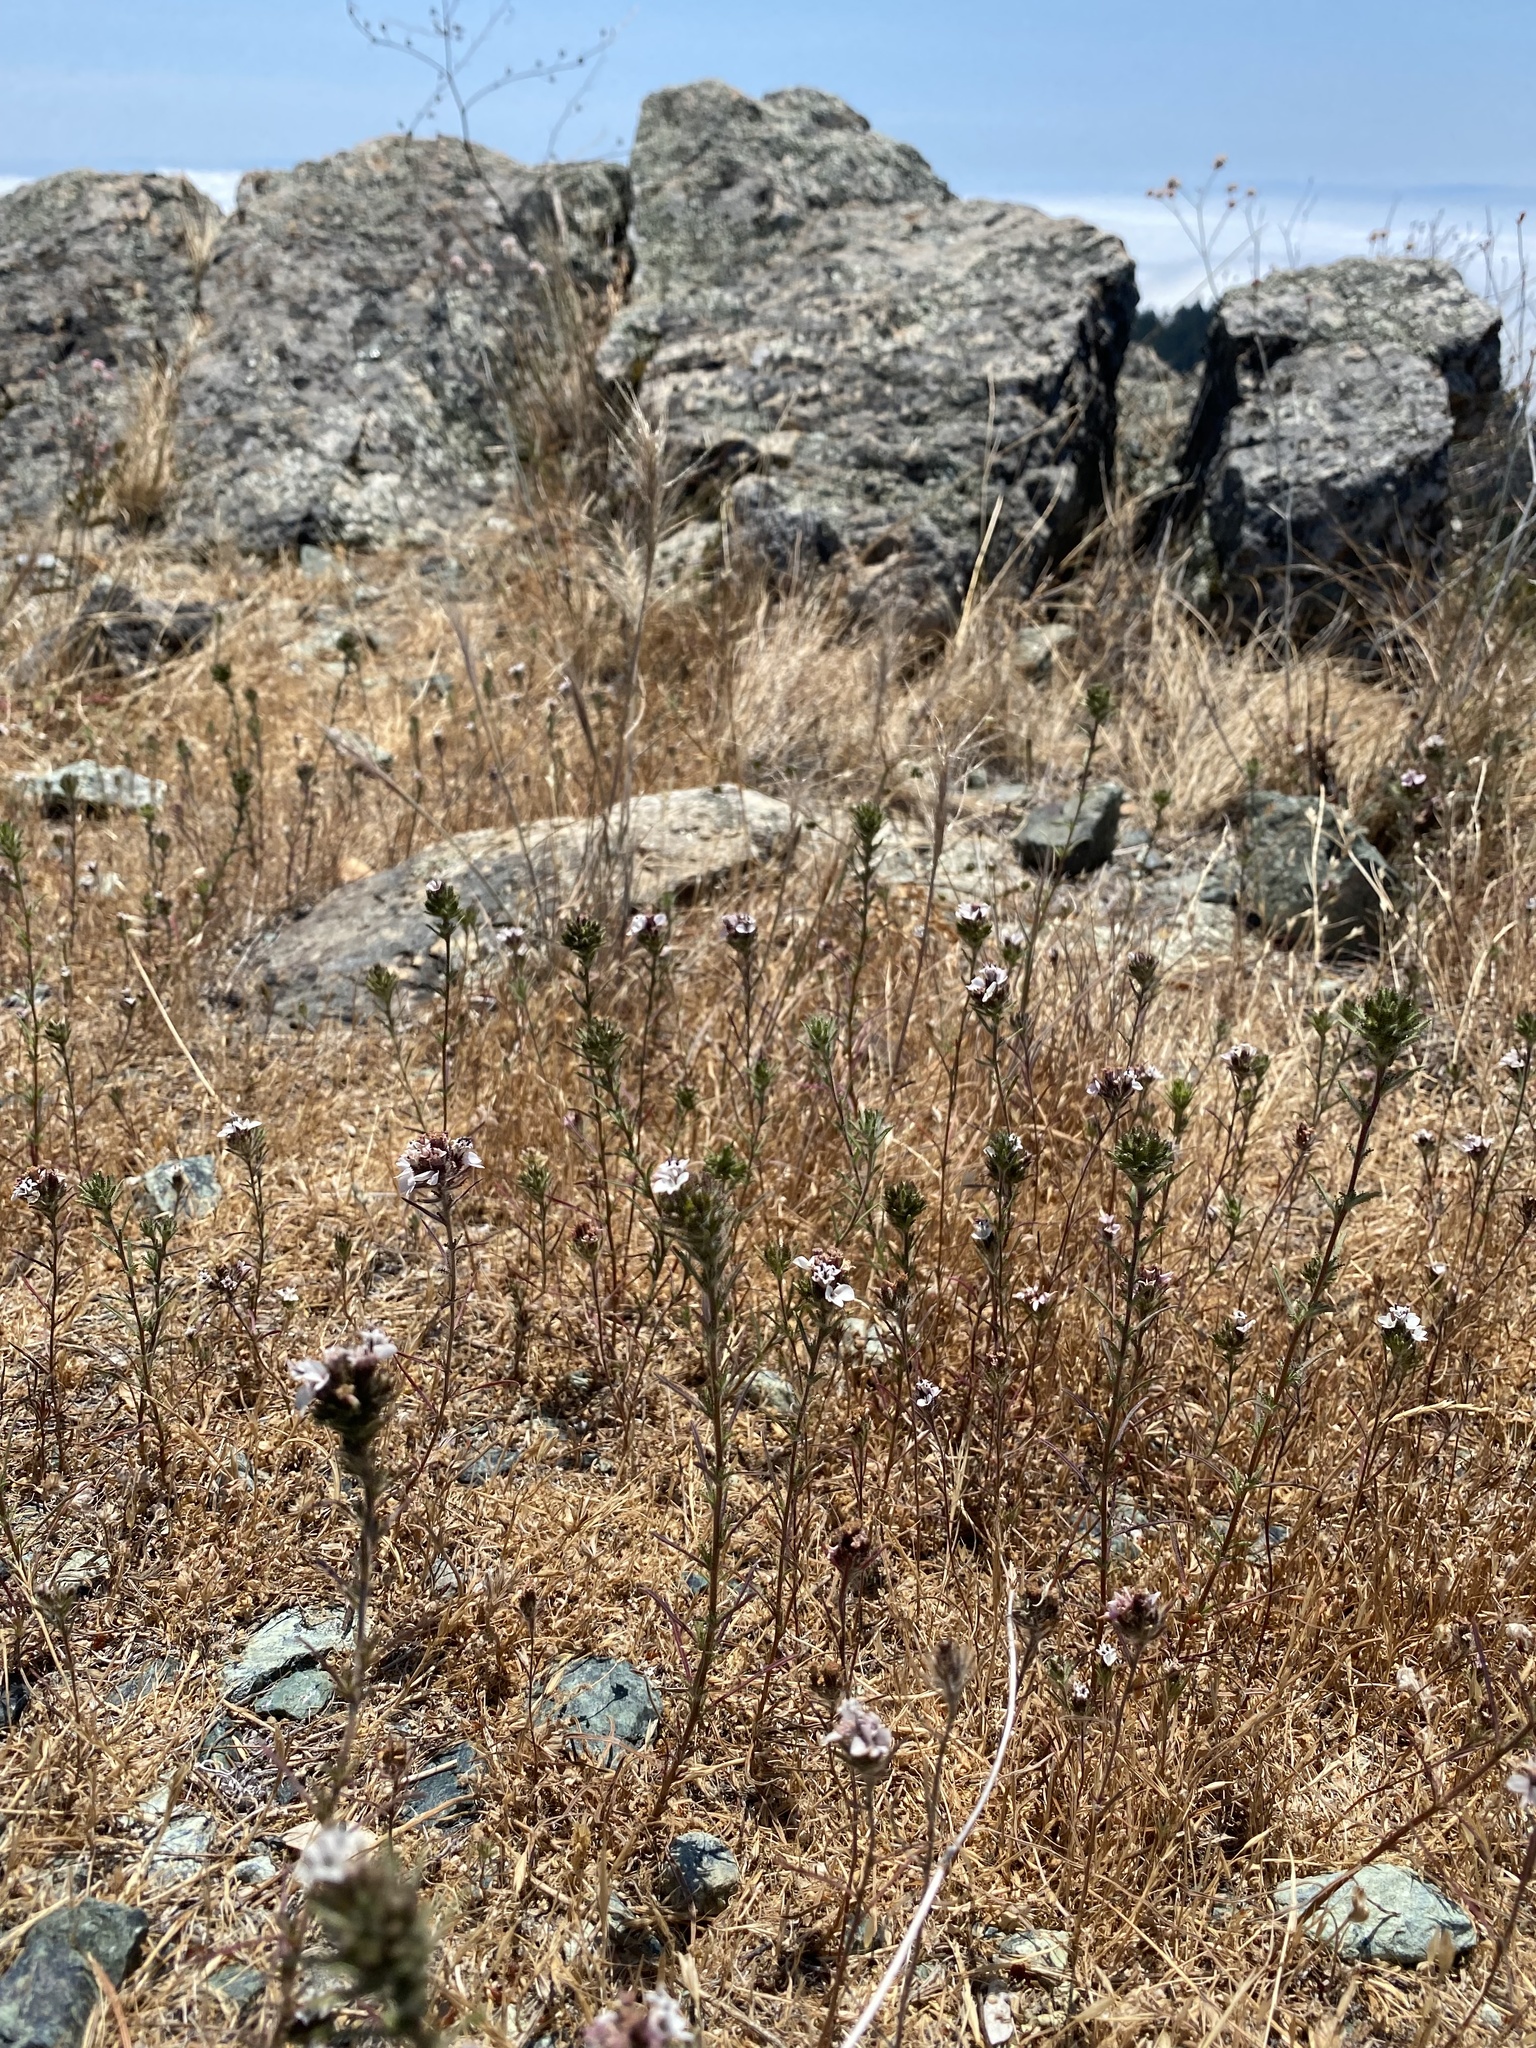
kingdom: Plantae
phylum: Tracheophyta
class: Magnoliopsida
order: Asterales
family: Asteraceae
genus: Calycadenia
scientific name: Calycadenia multiglandulosa
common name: Sticky calycadenia
